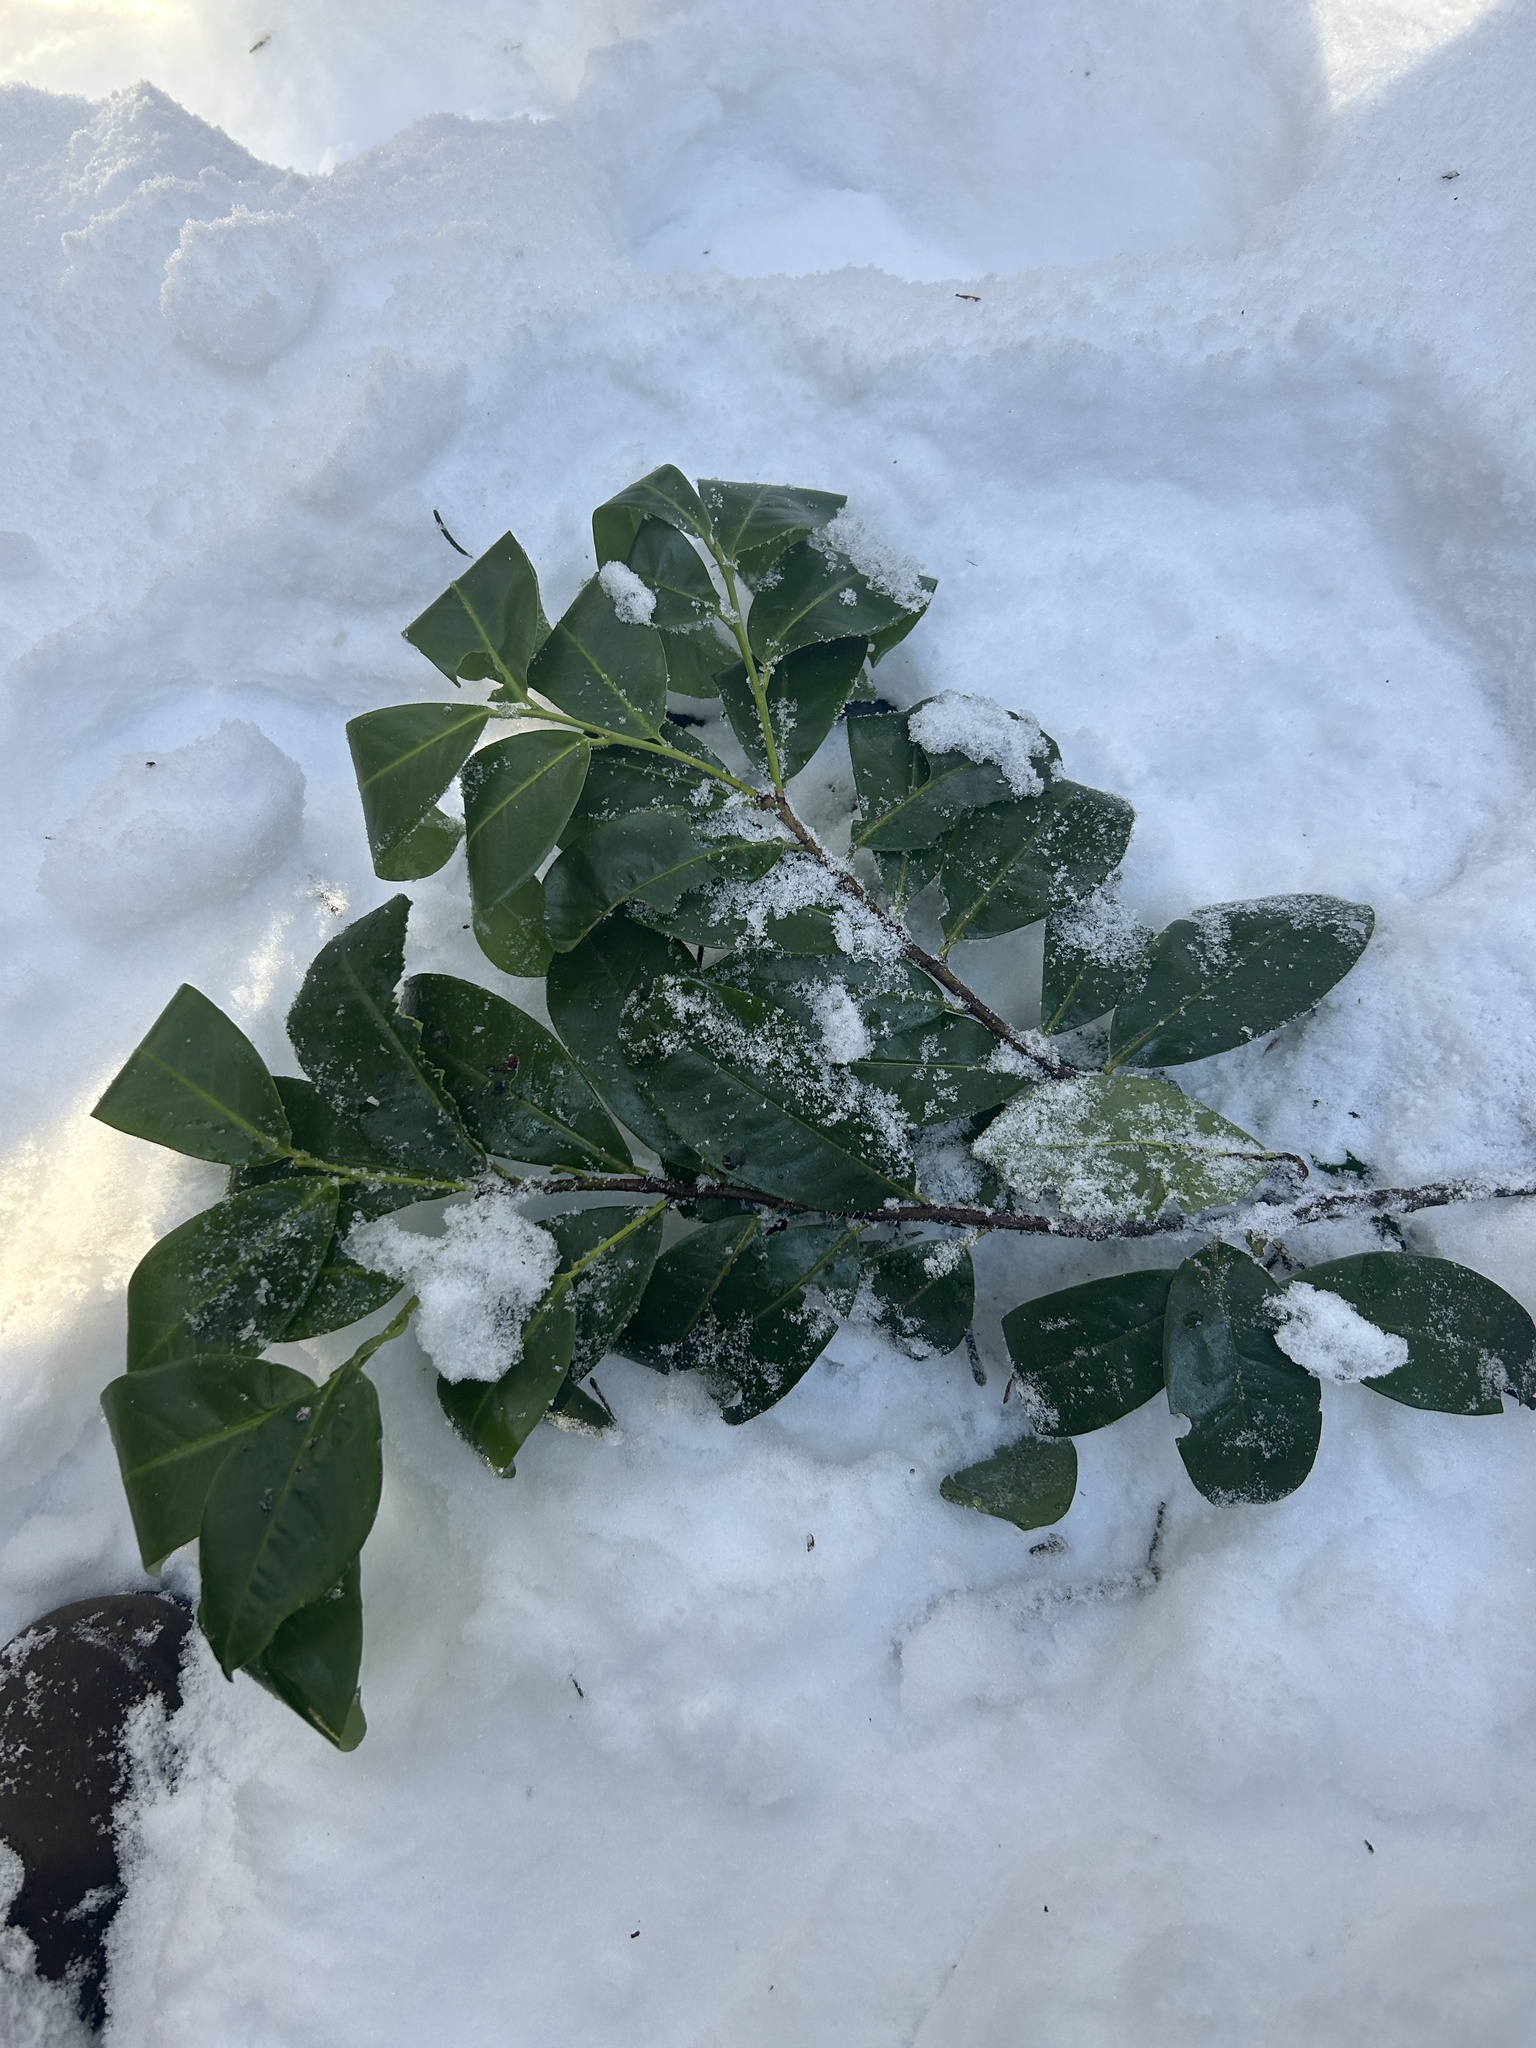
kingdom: Plantae
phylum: Tracheophyta
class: Magnoliopsida
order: Rosales
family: Rosaceae
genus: Prunus
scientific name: Prunus laurocerasus
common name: Cherry laurel
